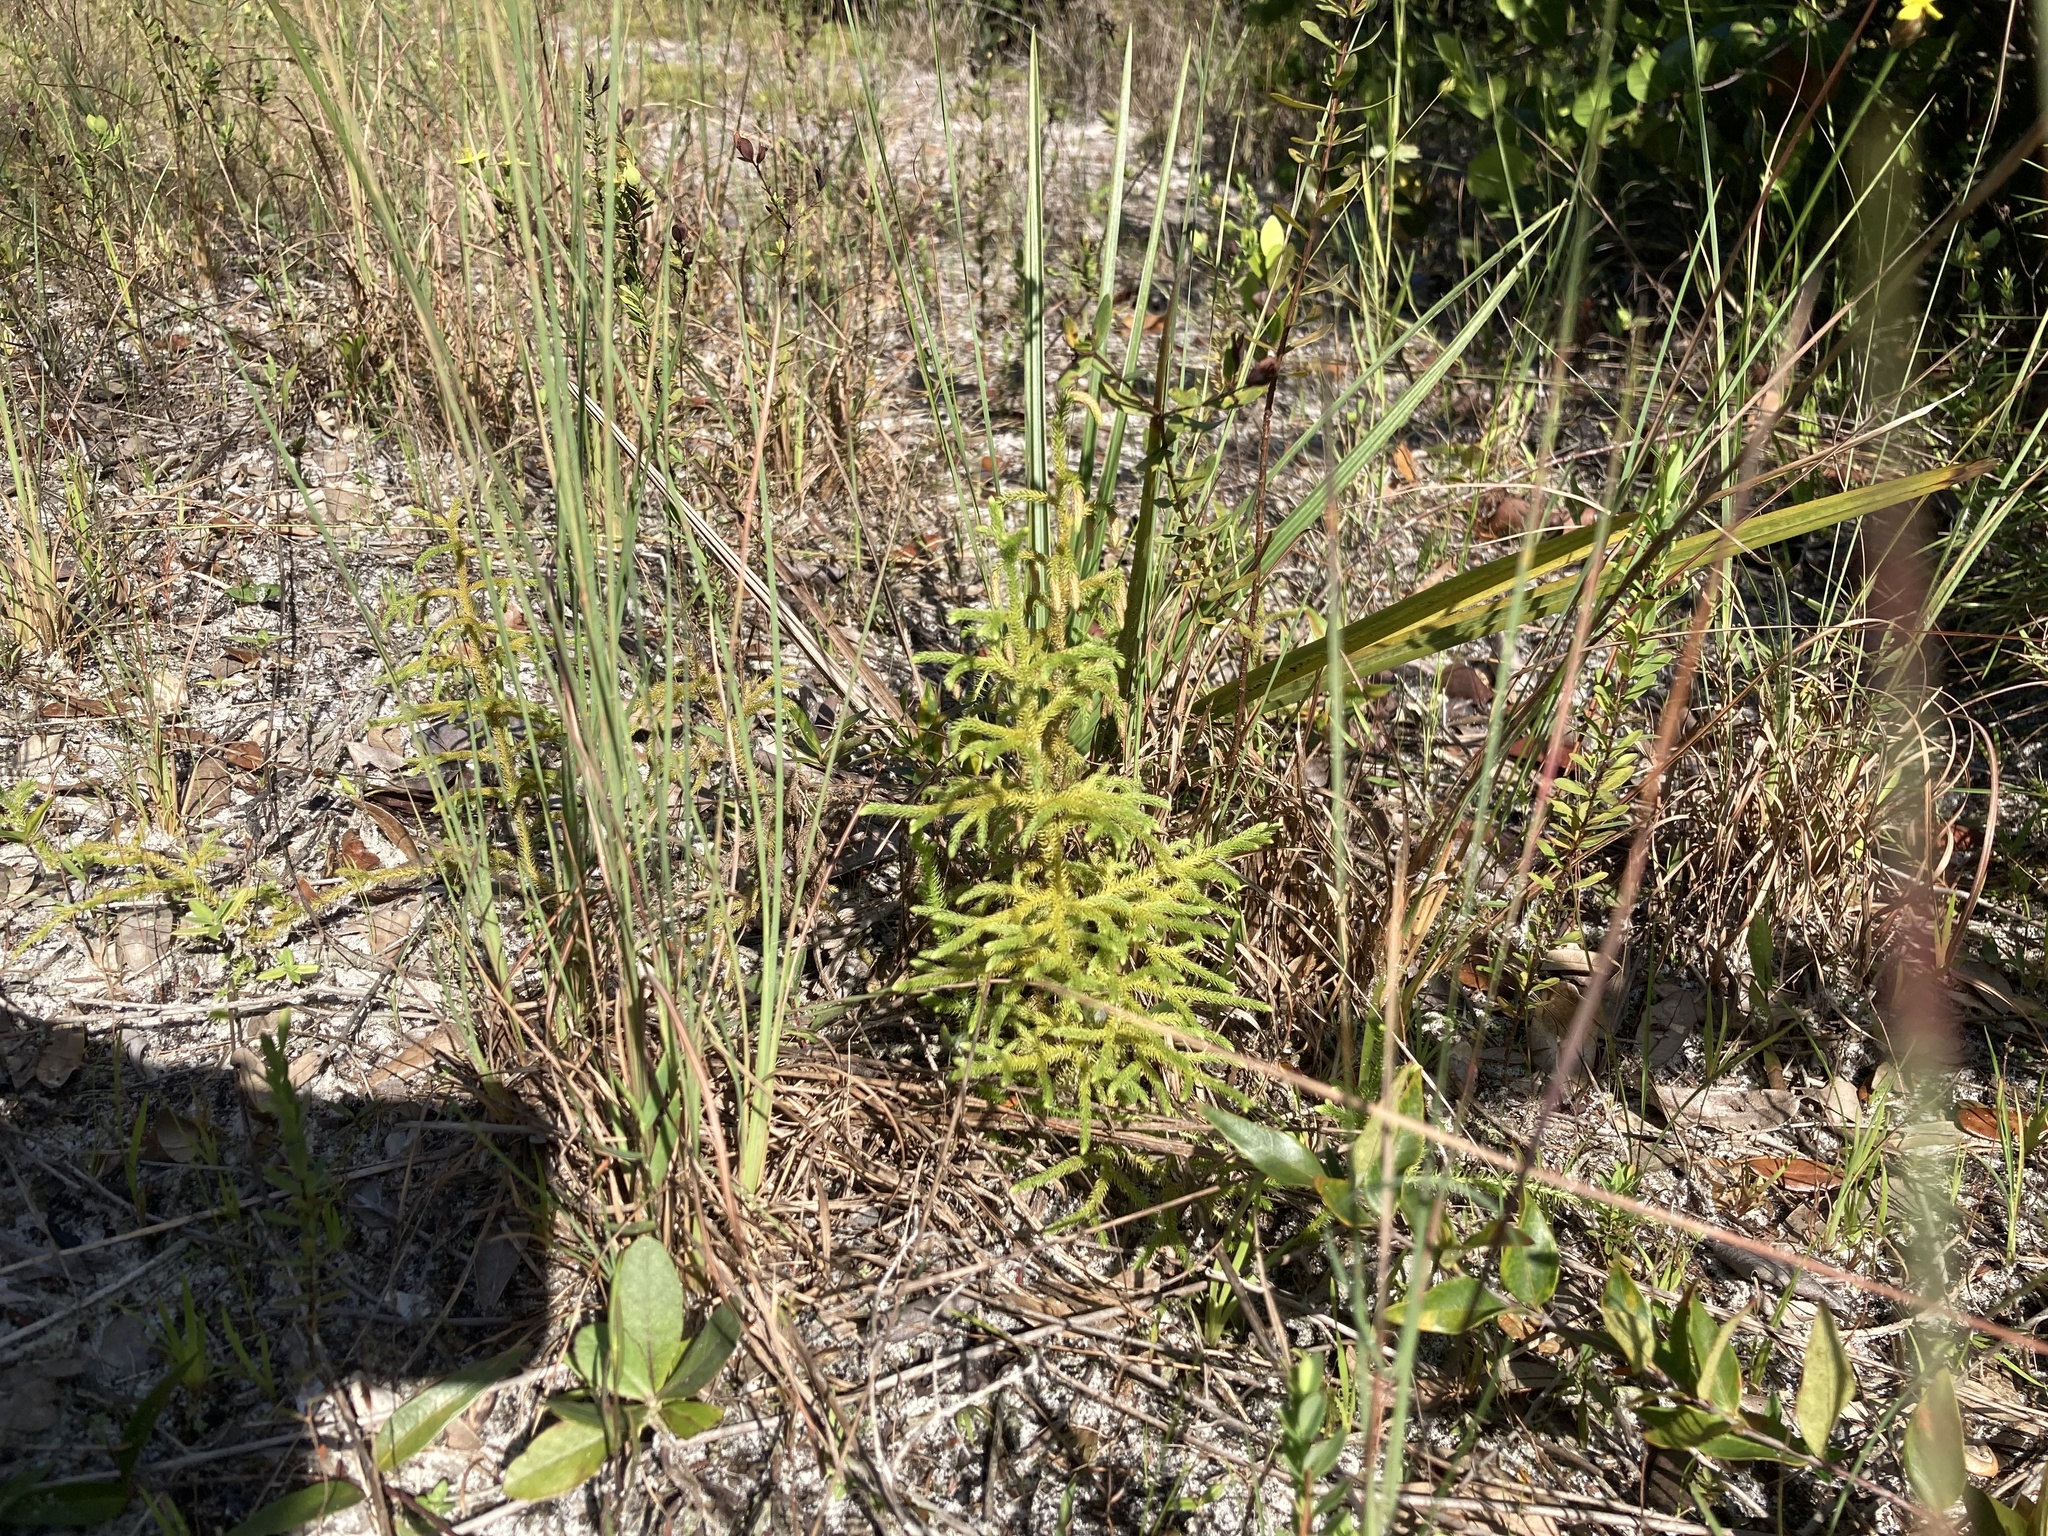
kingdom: Plantae
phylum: Tracheophyta
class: Lycopodiopsida
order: Lycopodiales
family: Lycopodiaceae
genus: Palhinhaea
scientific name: Palhinhaea cernua
